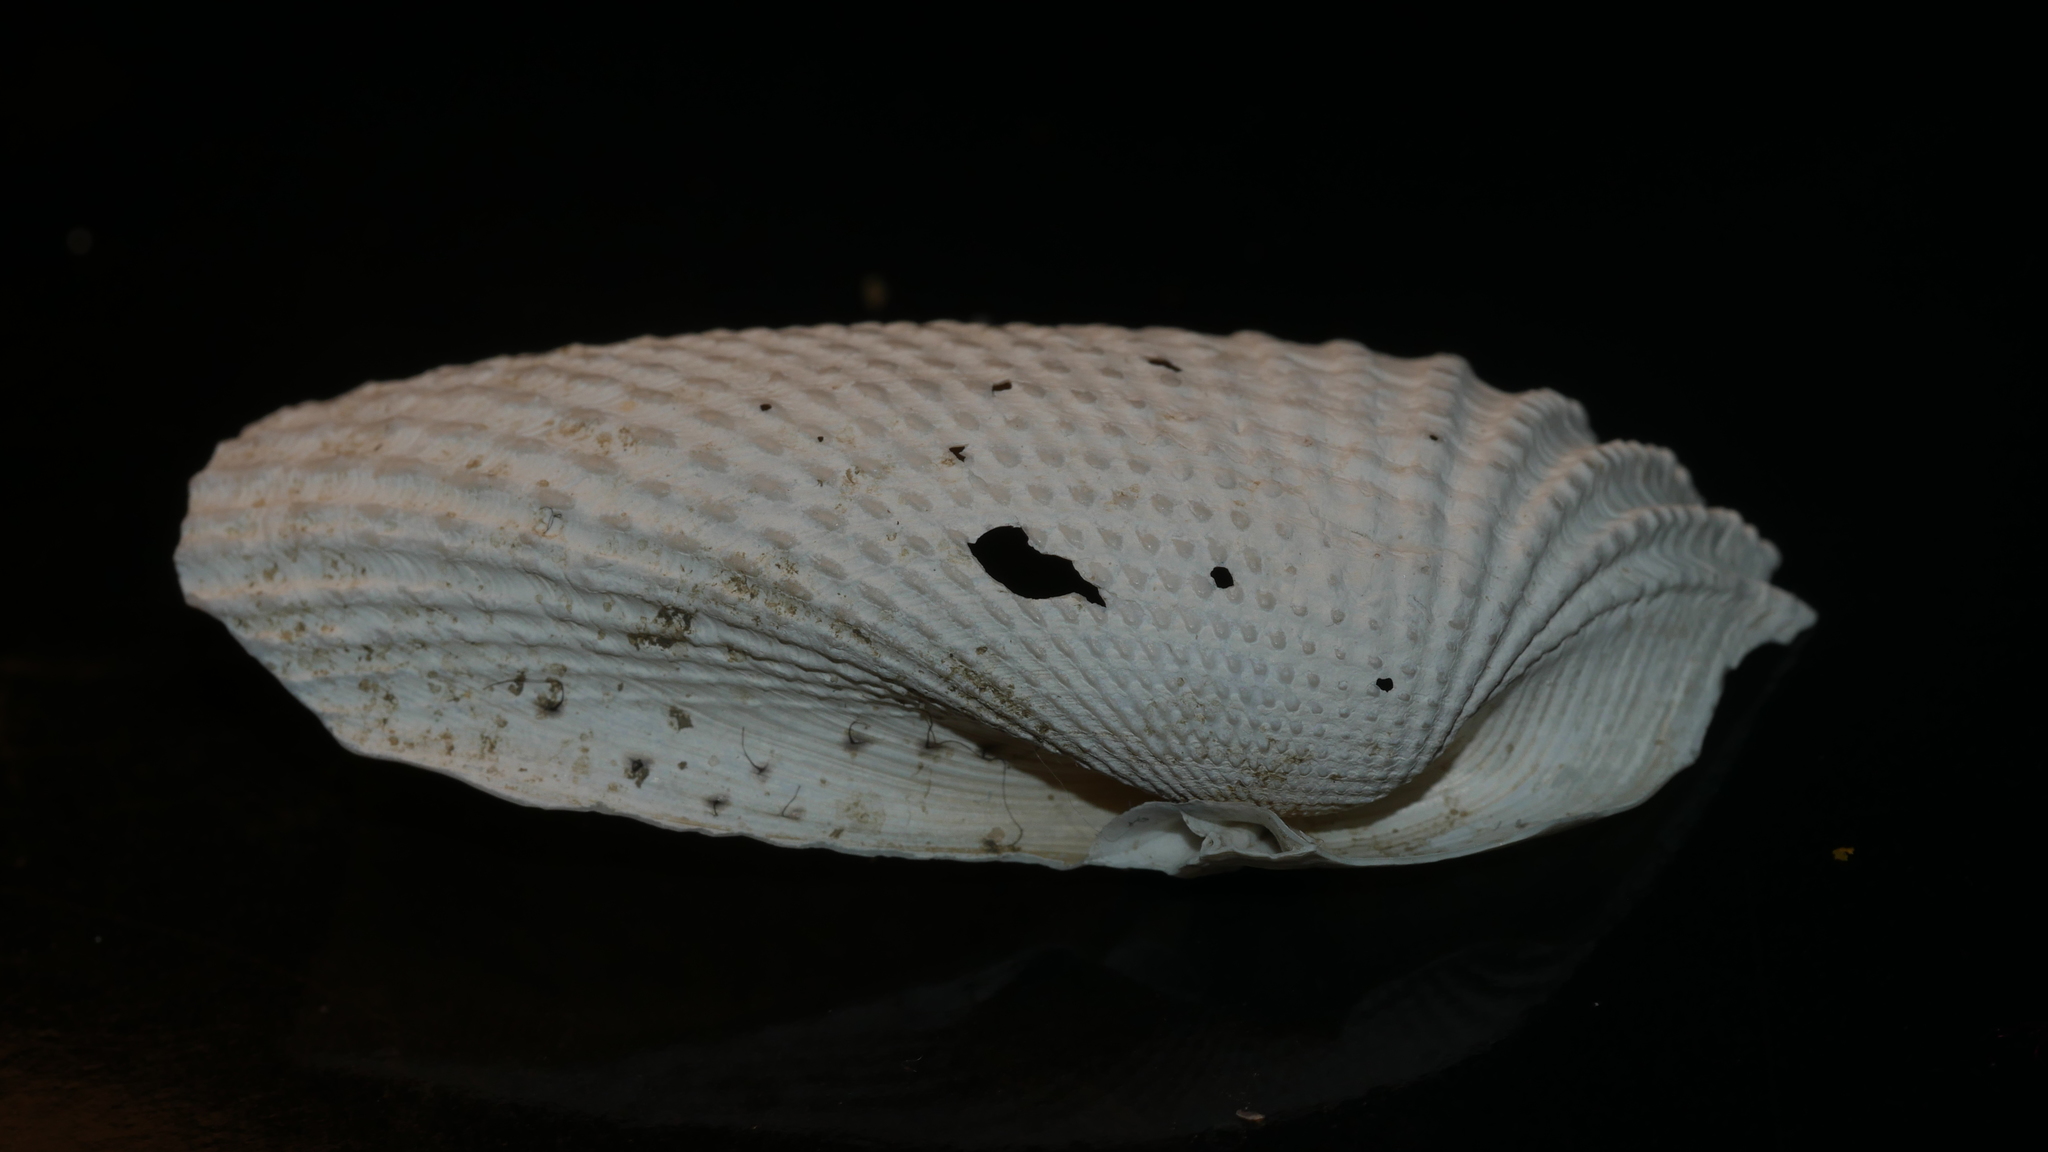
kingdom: Animalia
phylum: Mollusca
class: Bivalvia
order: Myida
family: Pholadidae
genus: Cyrtopleura
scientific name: Cyrtopleura costata
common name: Angel wing
